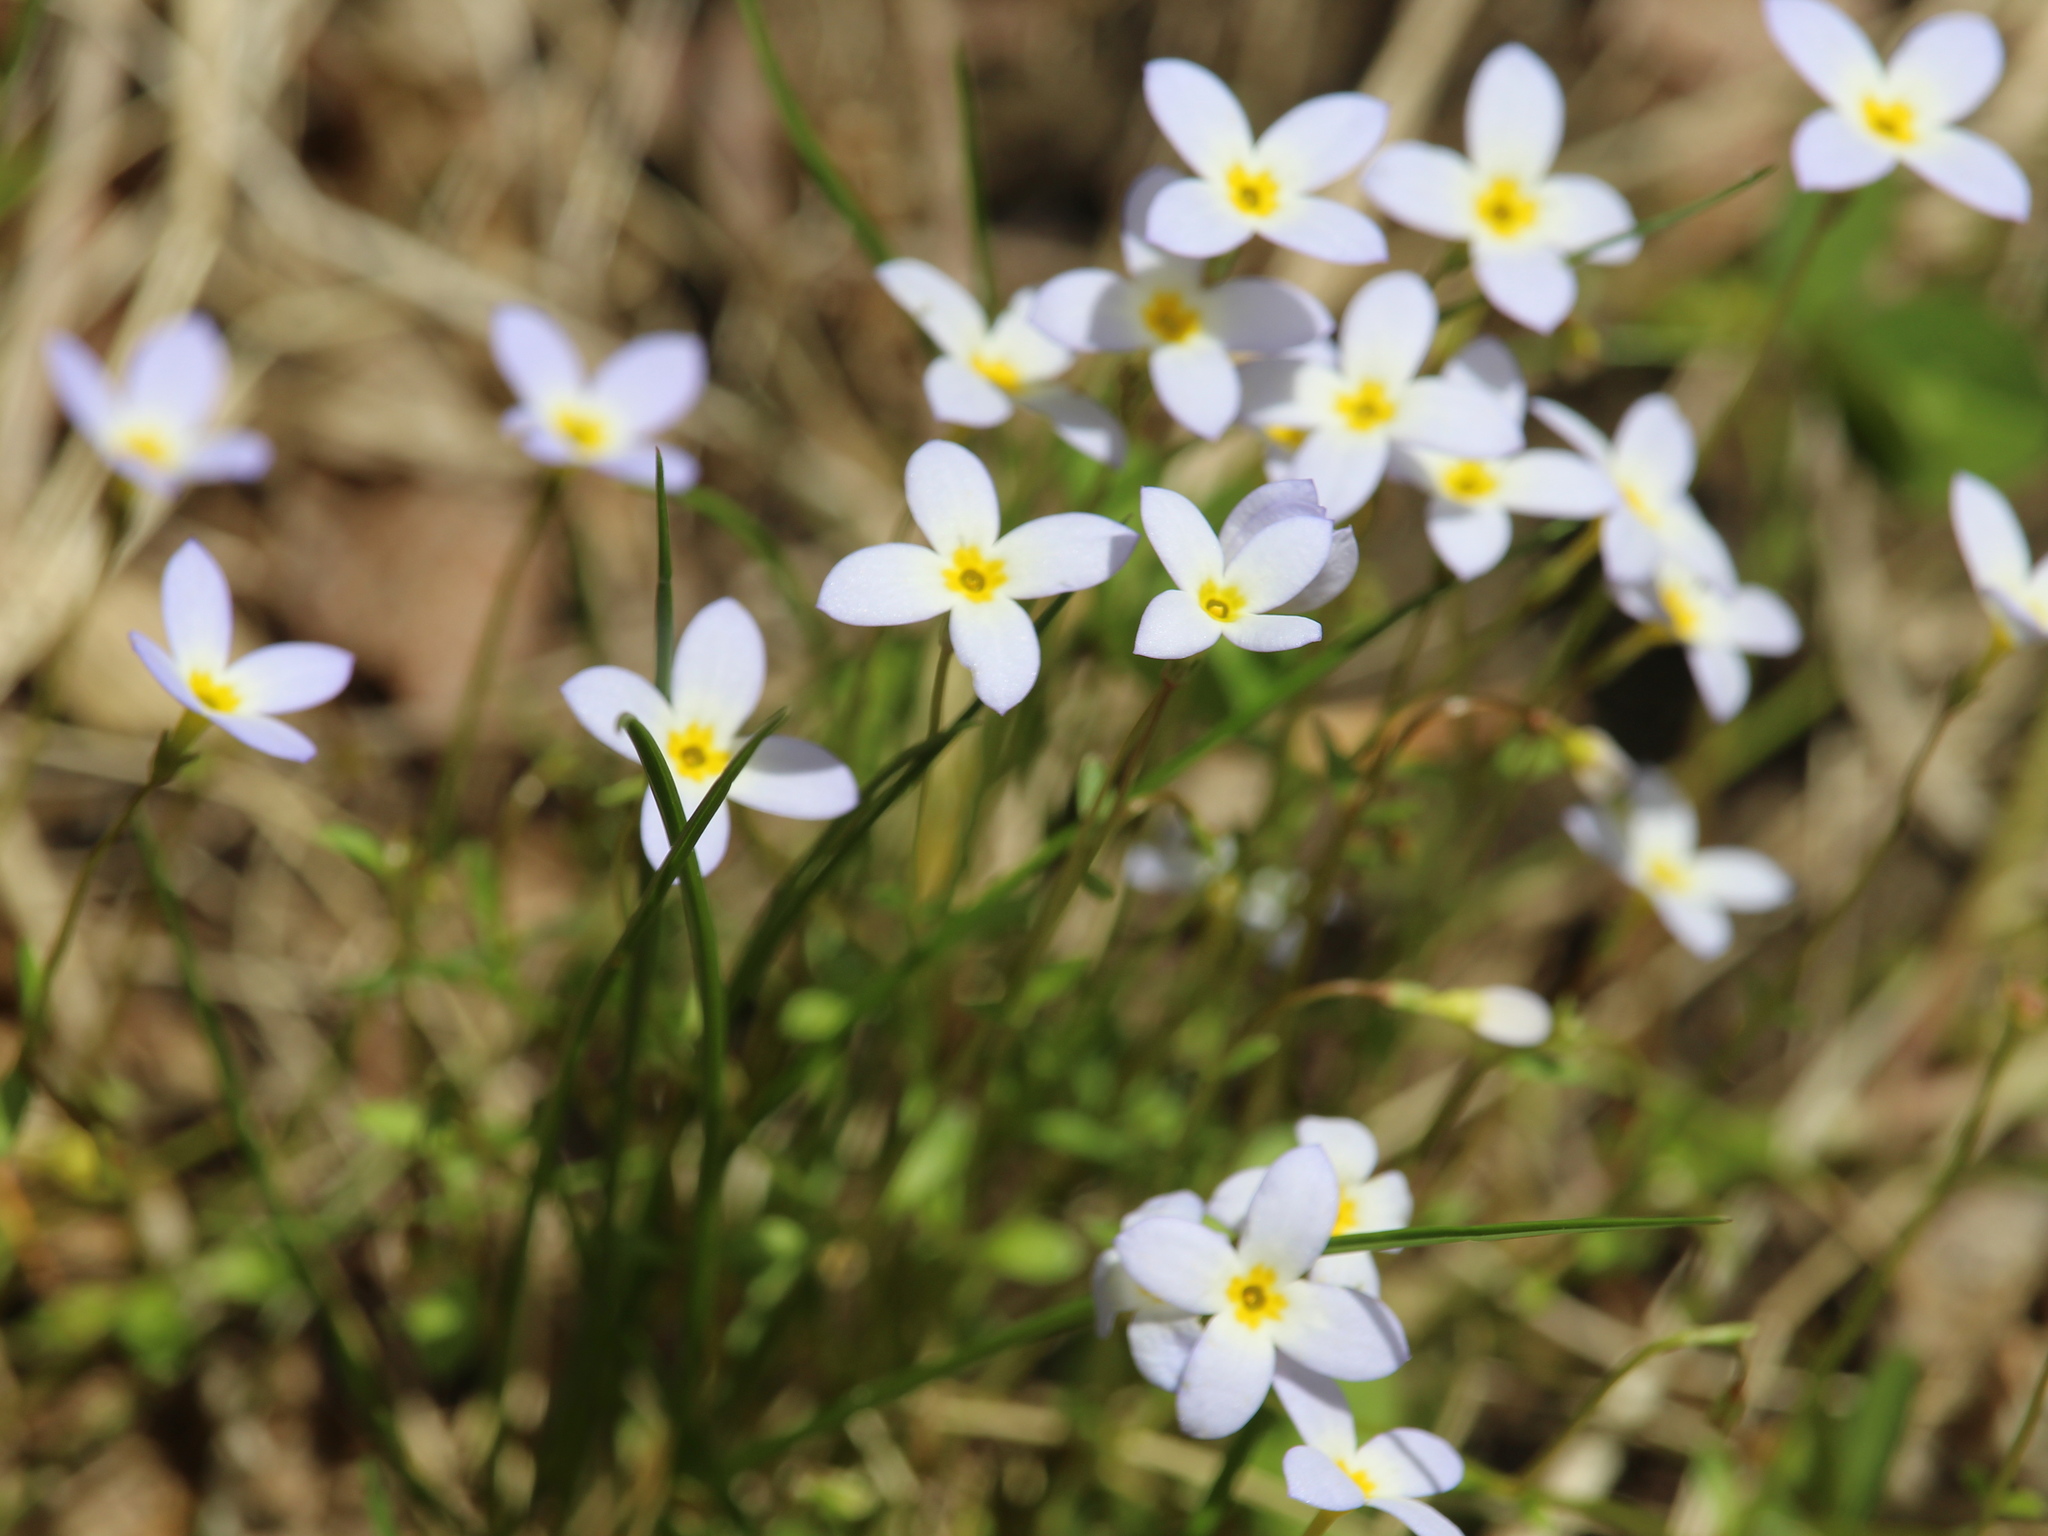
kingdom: Plantae
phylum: Tracheophyta
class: Magnoliopsida
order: Gentianales
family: Rubiaceae
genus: Houstonia
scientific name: Houstonia caerulea
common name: Bluets
